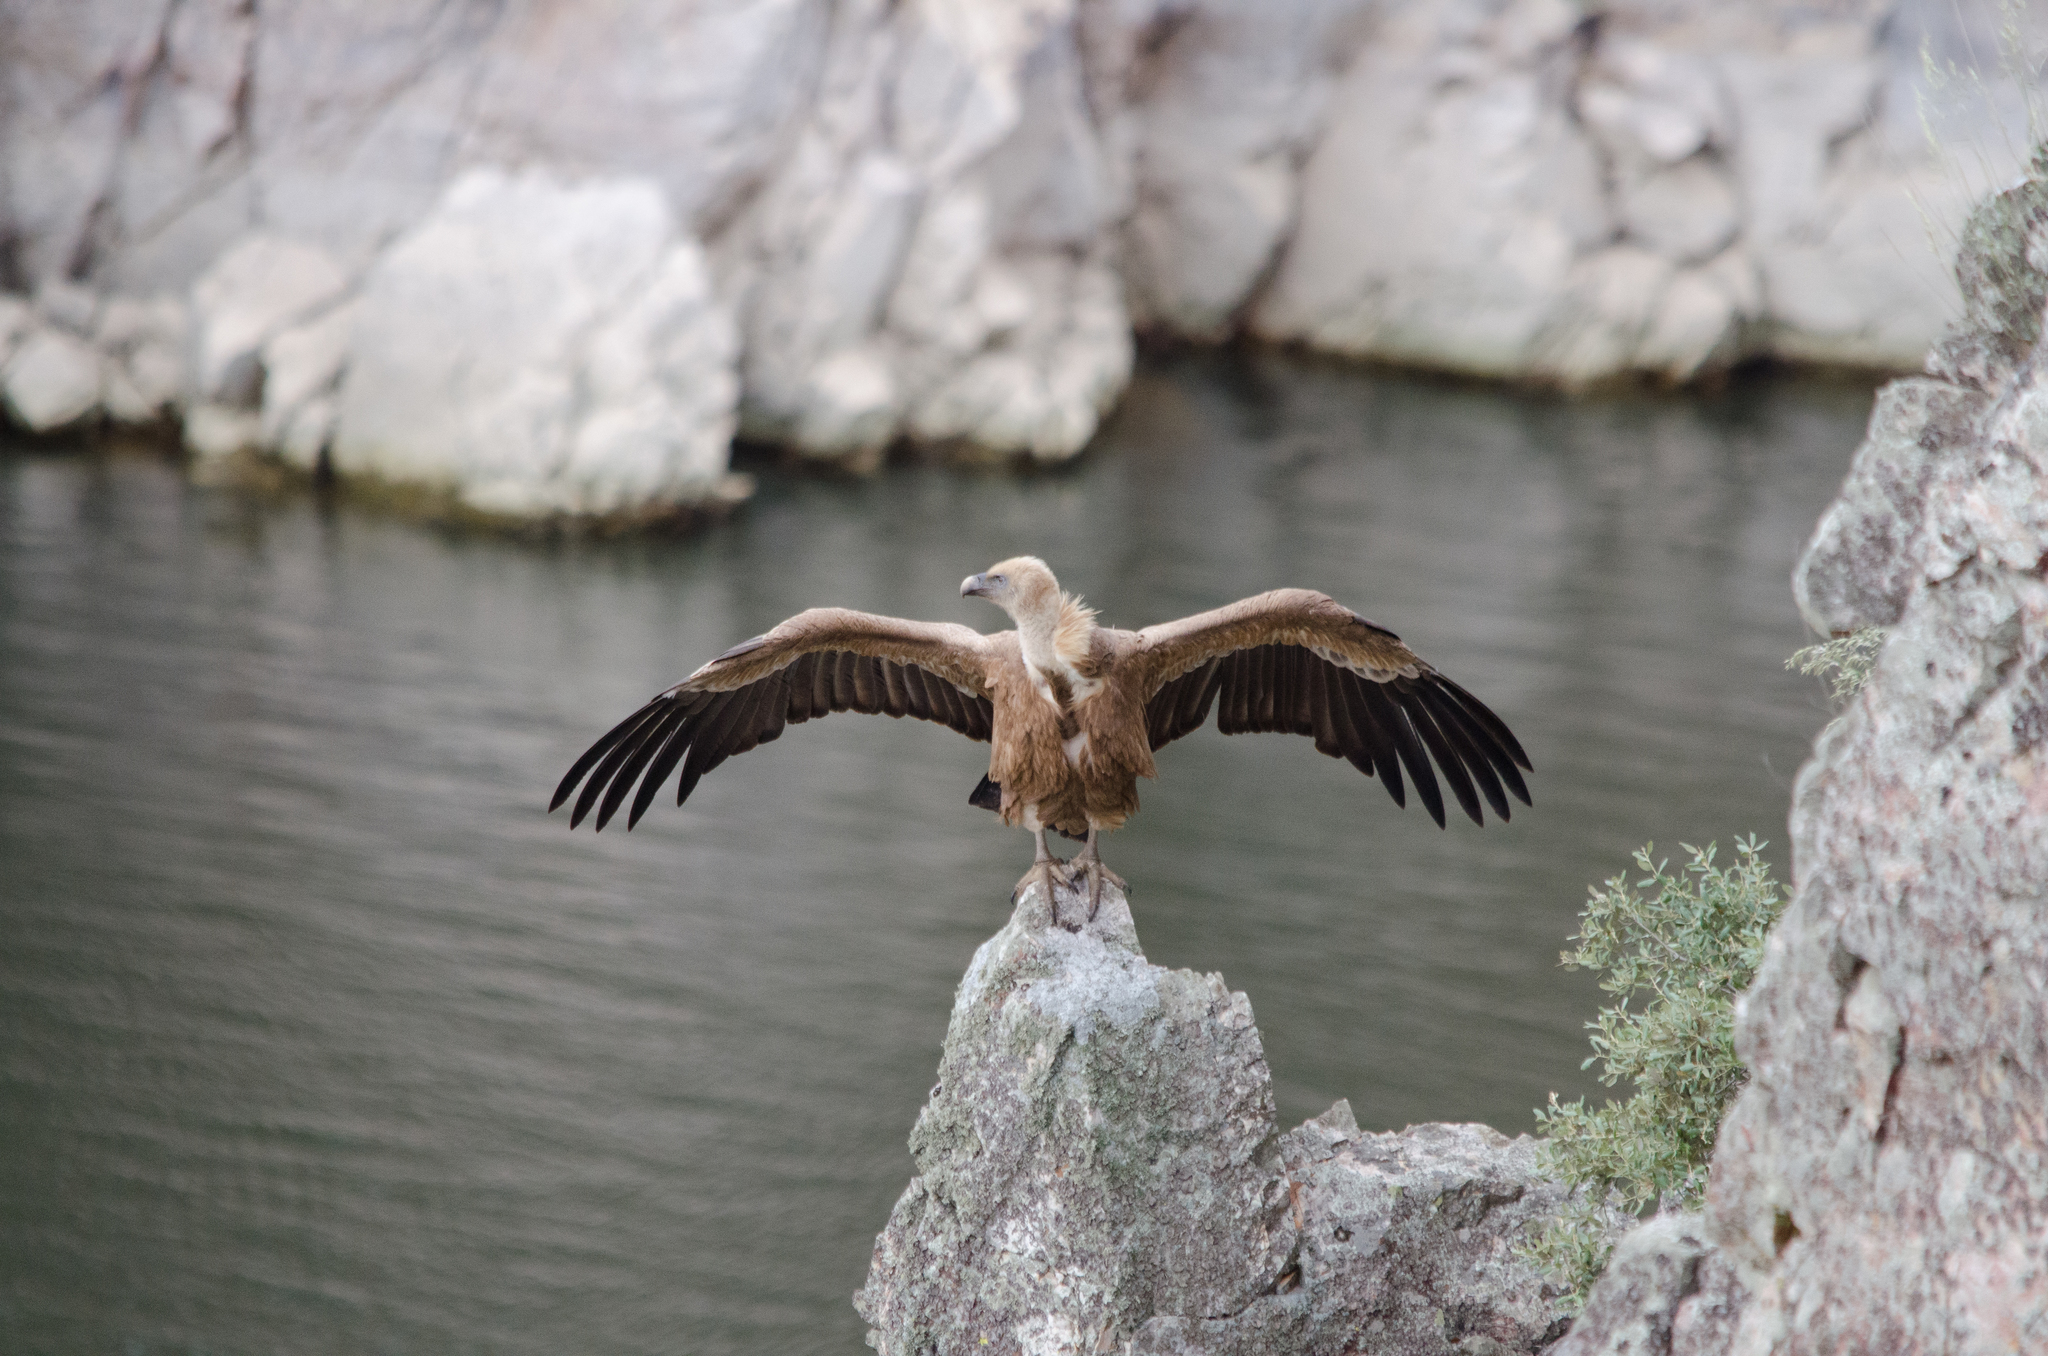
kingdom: Animalia
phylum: Chordata
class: Aves
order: Accipitriformes
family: Accipitridae
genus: Gyps
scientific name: Gyps fulvus
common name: Griffon vulture
